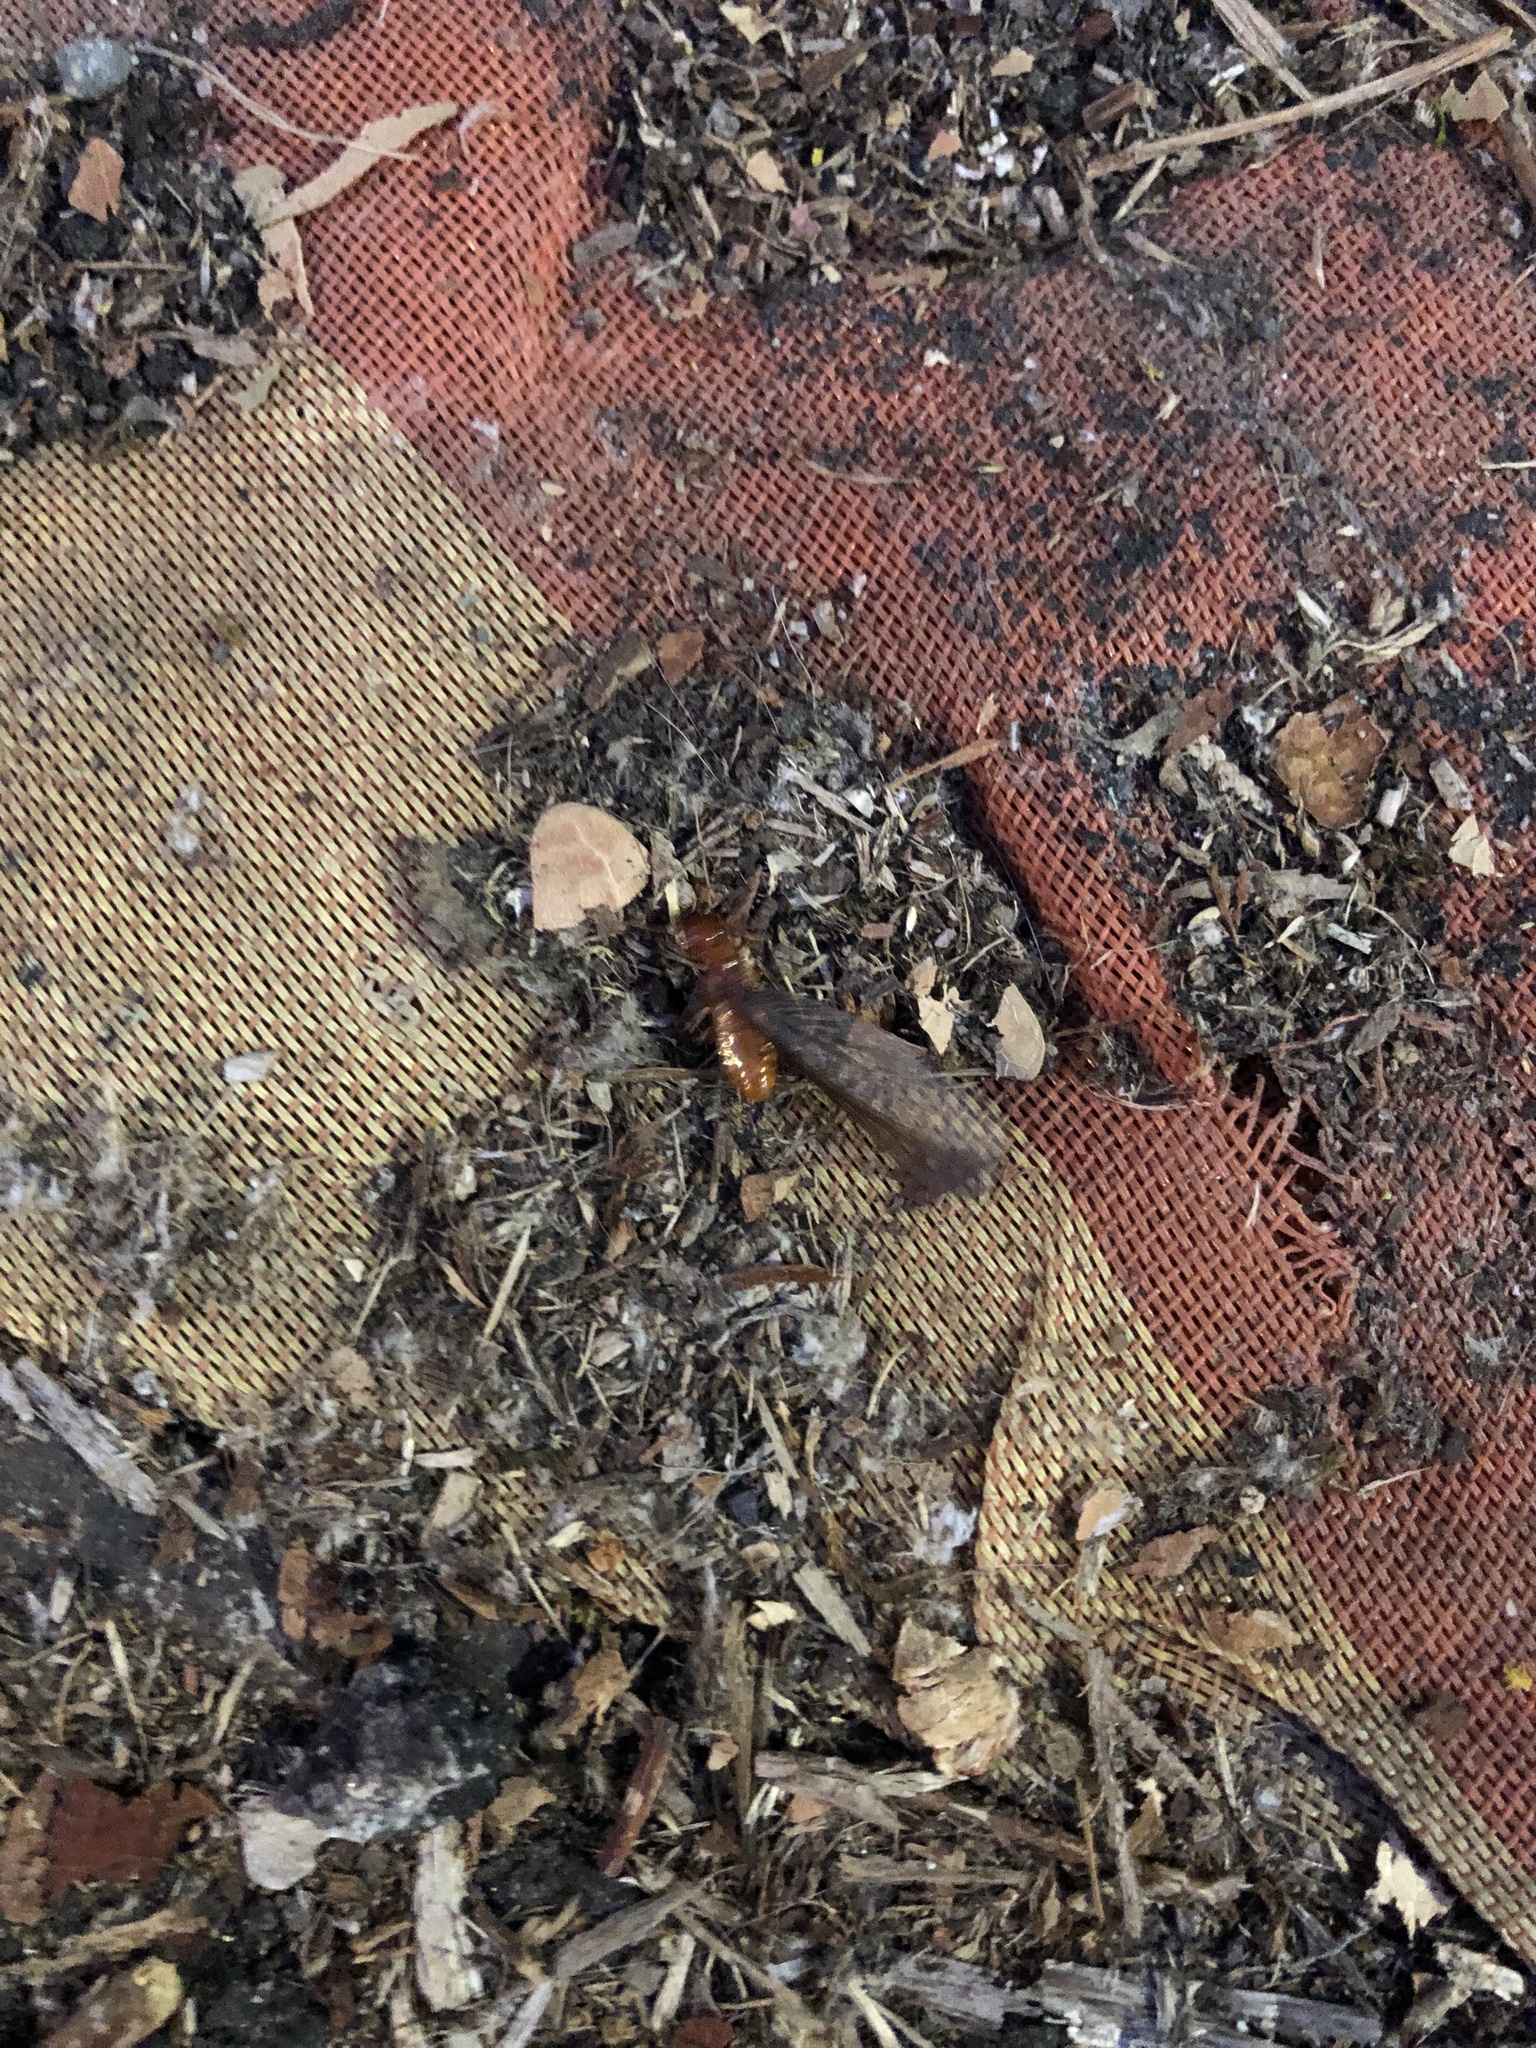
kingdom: Animalia
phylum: Arthropoda
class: Insecta
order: Blattodea
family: Archotermopsidae
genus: Zootermopsis
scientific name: Zootermopsis angusticollis
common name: Rottenwood termite
